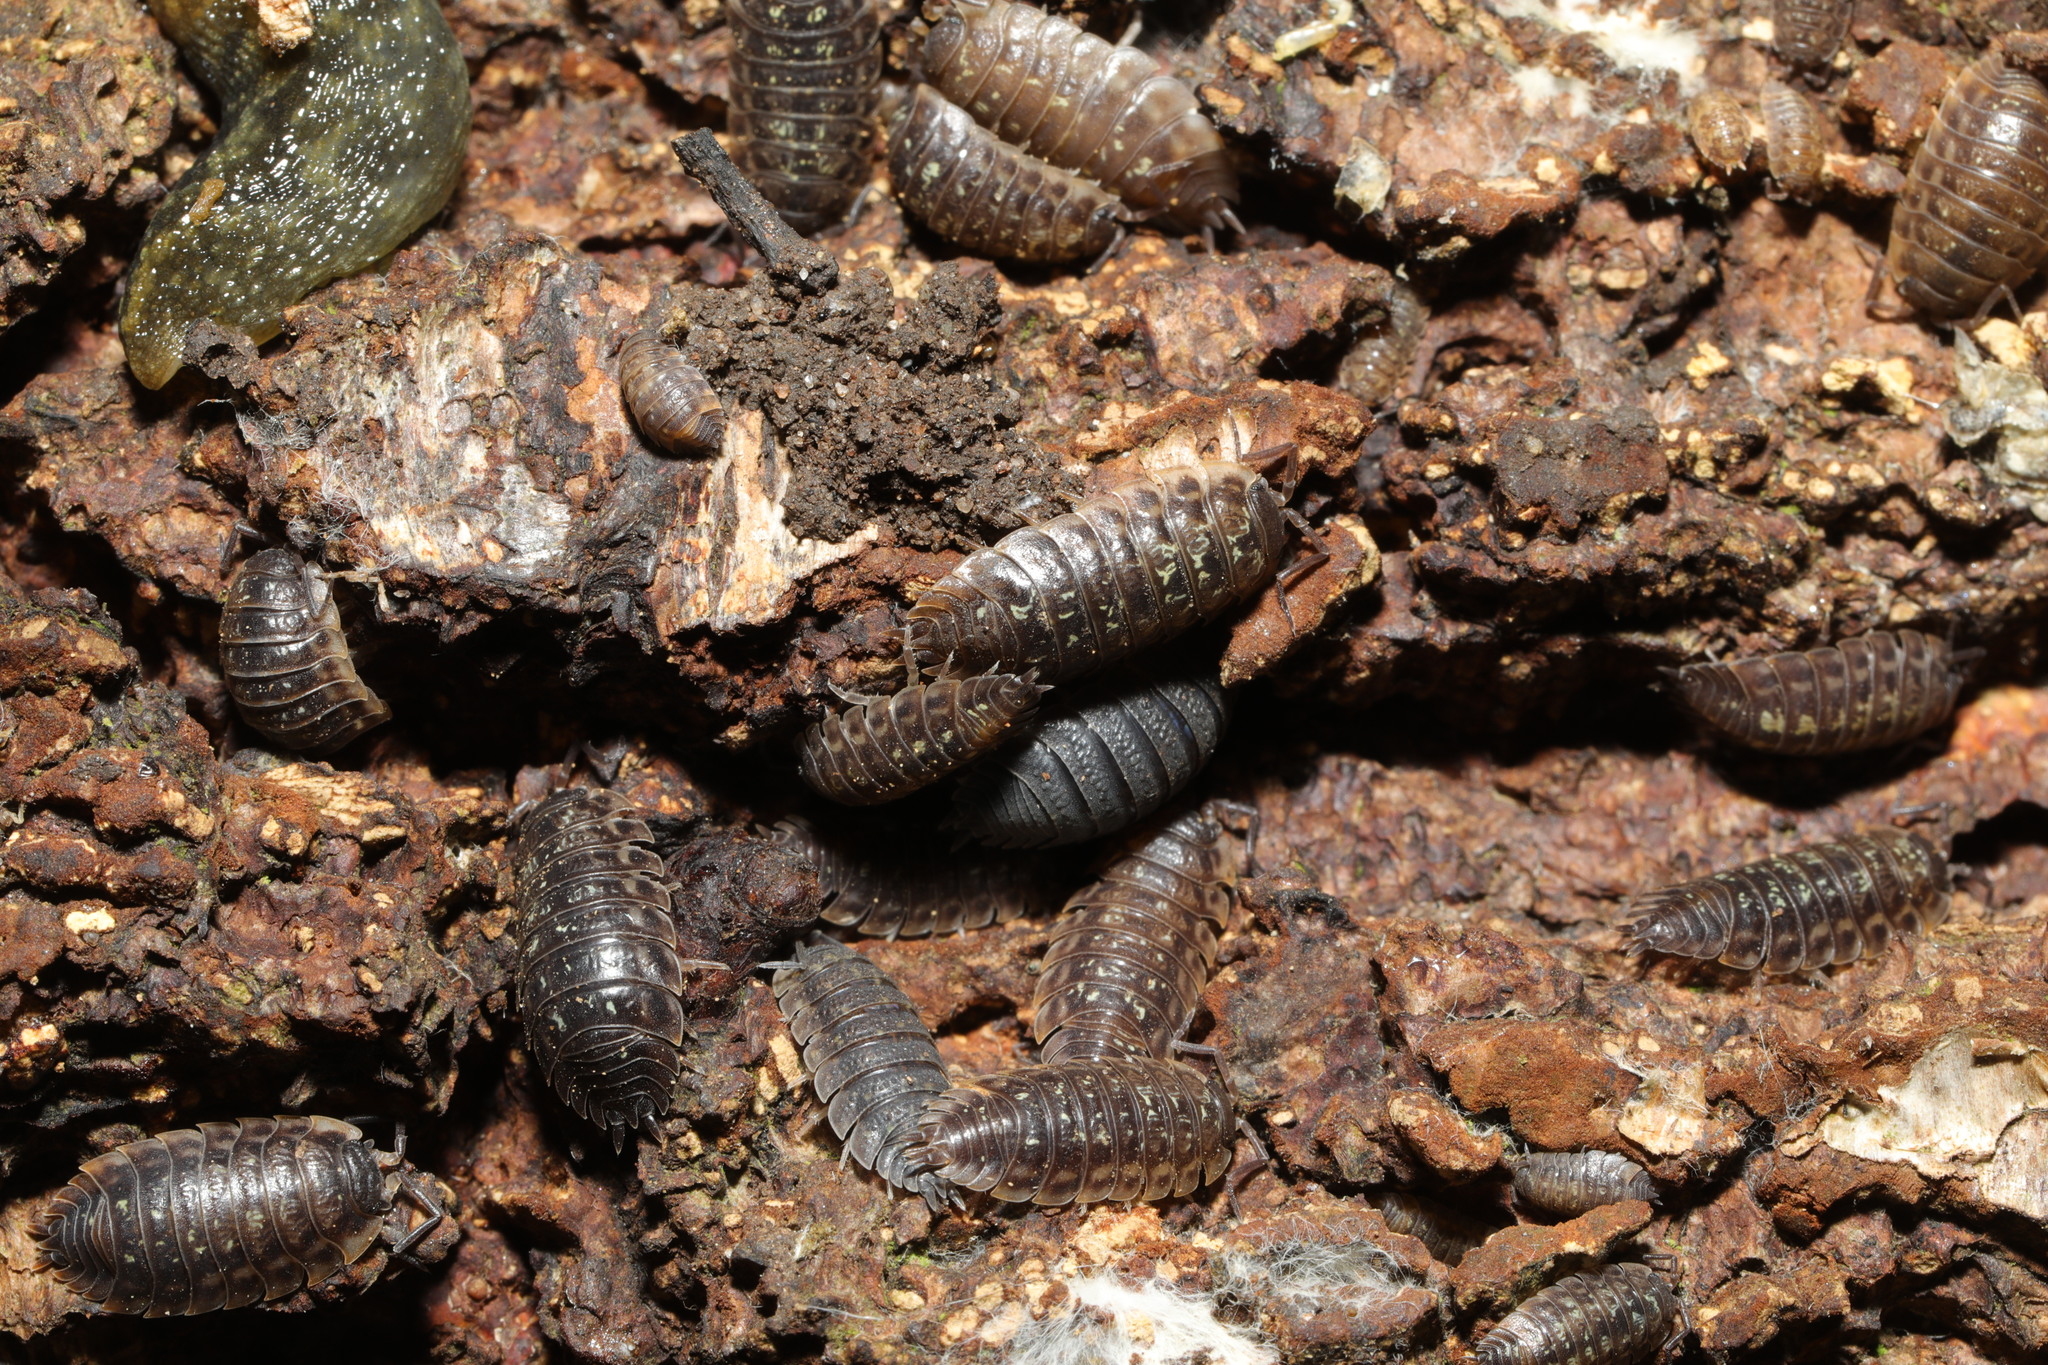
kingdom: Animalia
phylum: Arthropoda
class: Malacostraca
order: Isopoda
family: Oniscidae
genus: Oniscus
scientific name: Oniscus asellus
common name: Common shiny woodlouse
